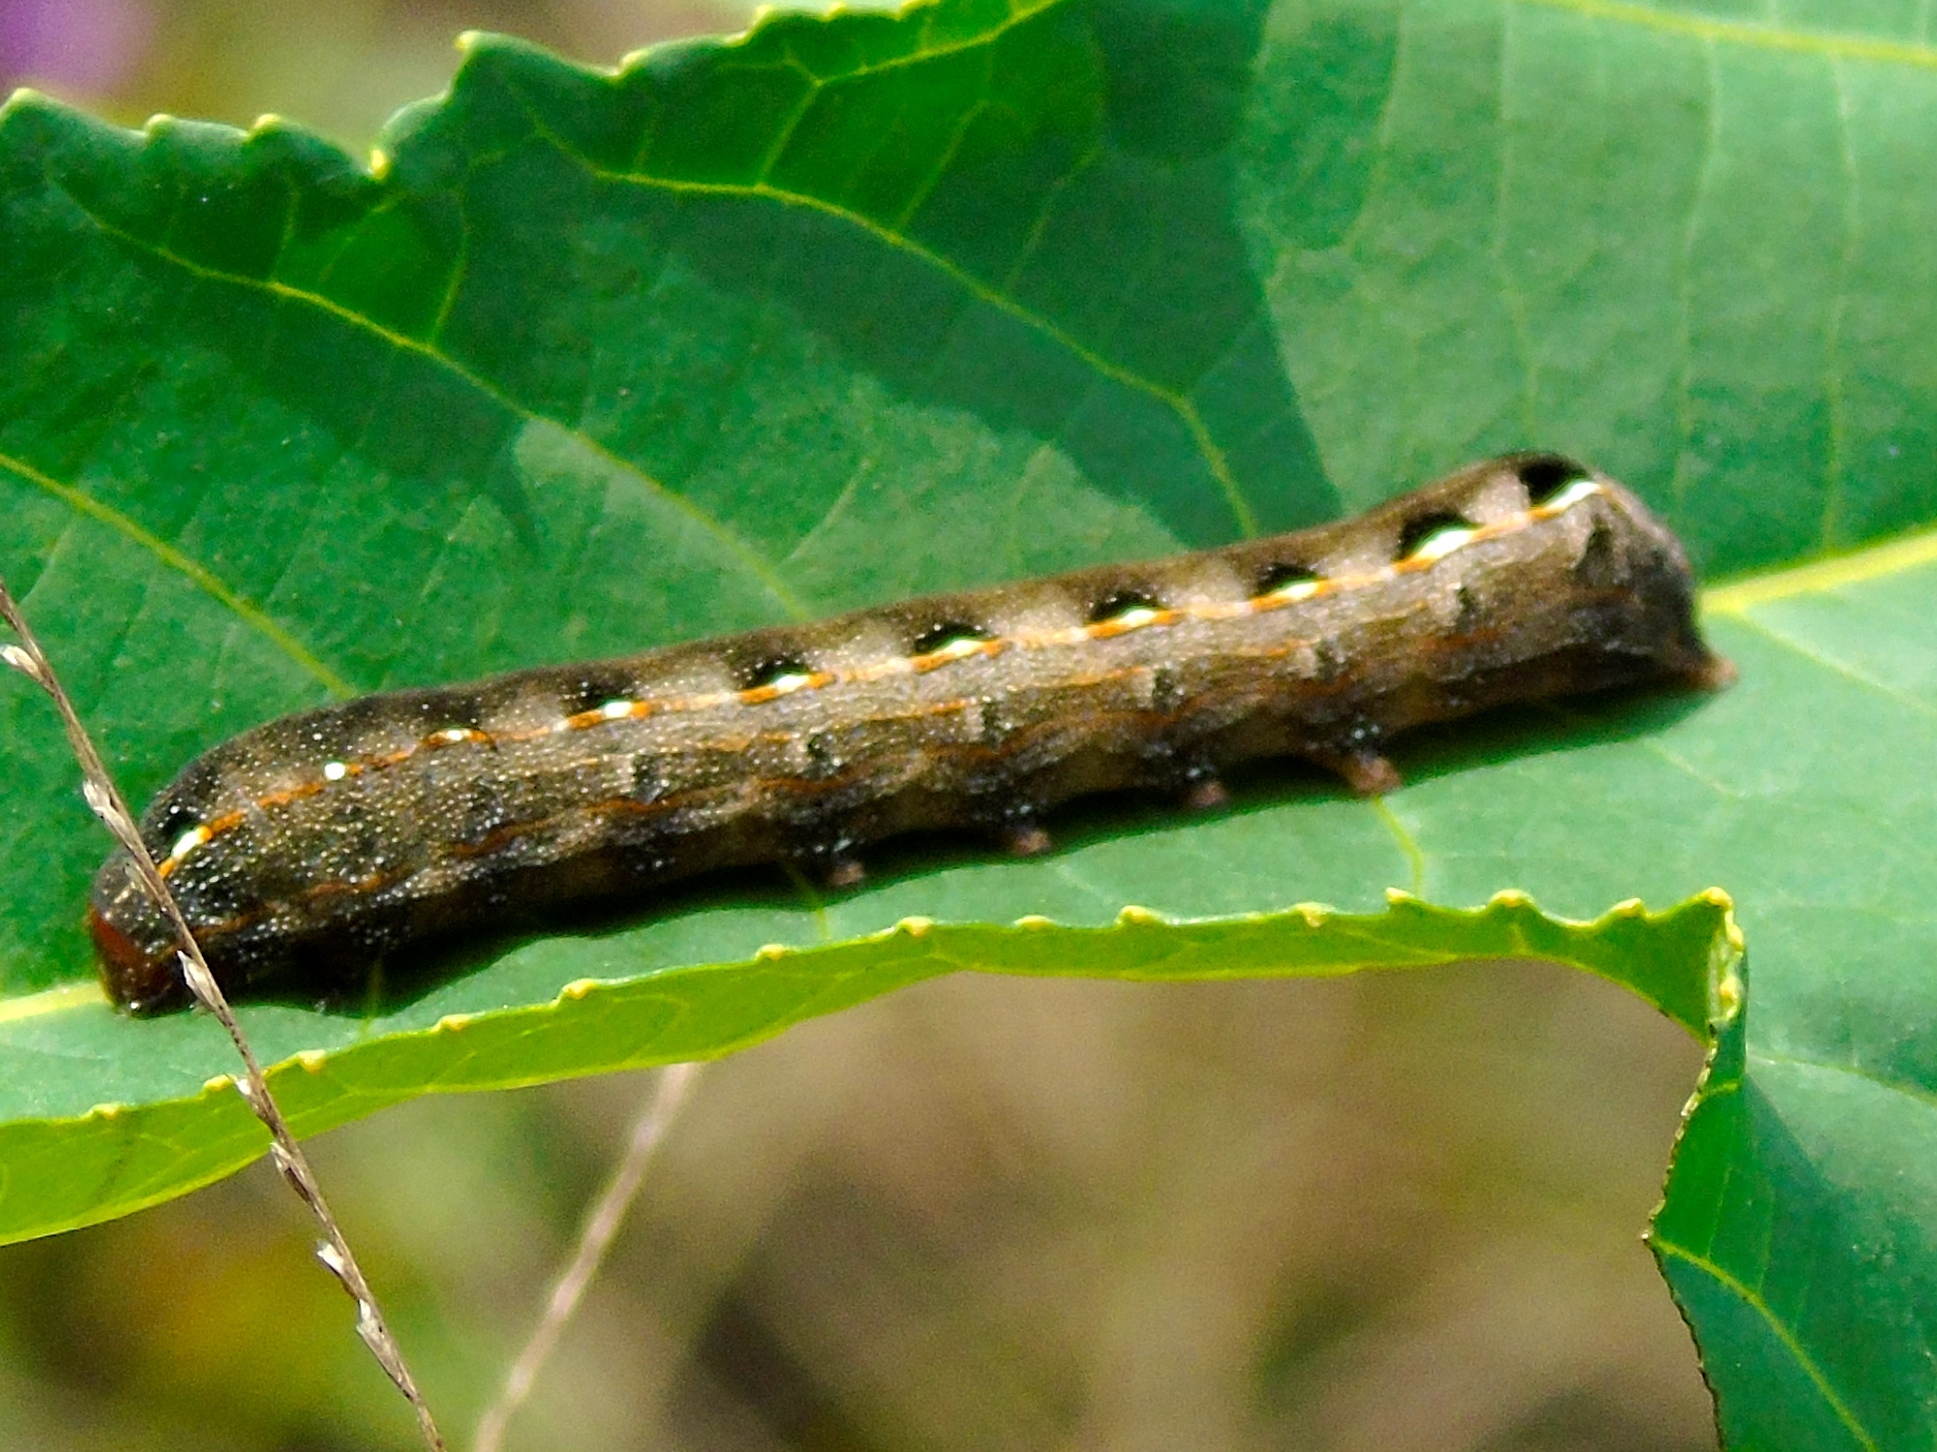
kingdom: Animalia
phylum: Arthropoda
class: Insecta
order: Lepidoptera
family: Noctuidae
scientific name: Noctuidae
